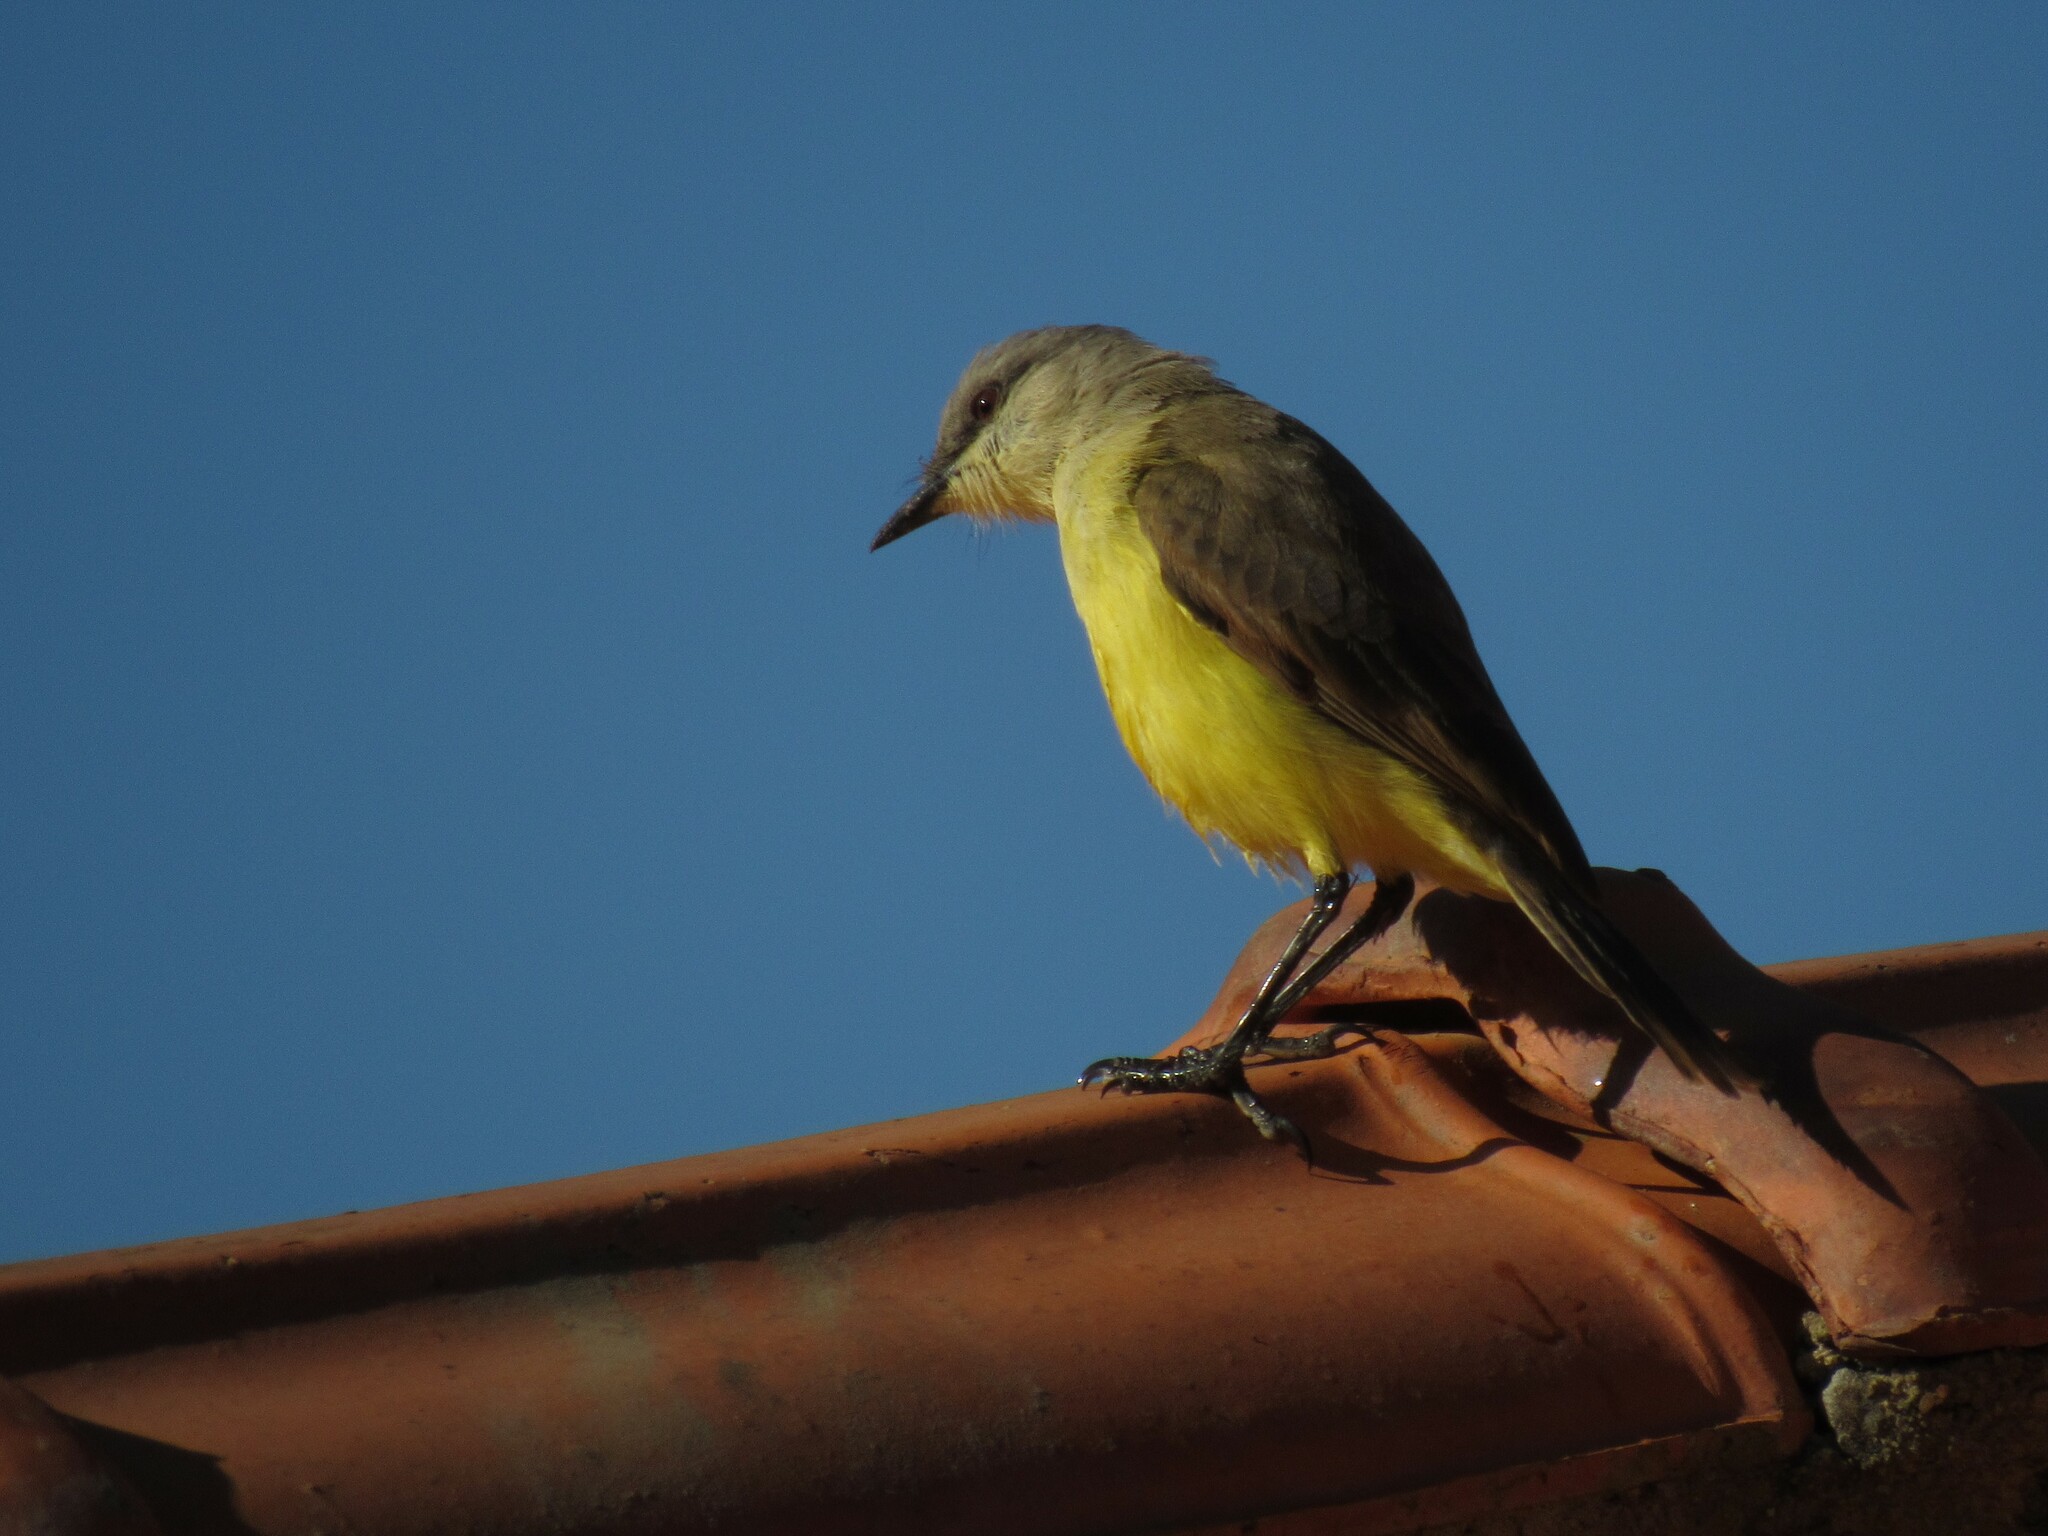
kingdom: Animalia
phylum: Chordata
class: Aves
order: Passeriformes
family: Tyrannidae
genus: Machetornis
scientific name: Machetornis rixosa
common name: Cattle tyrant
